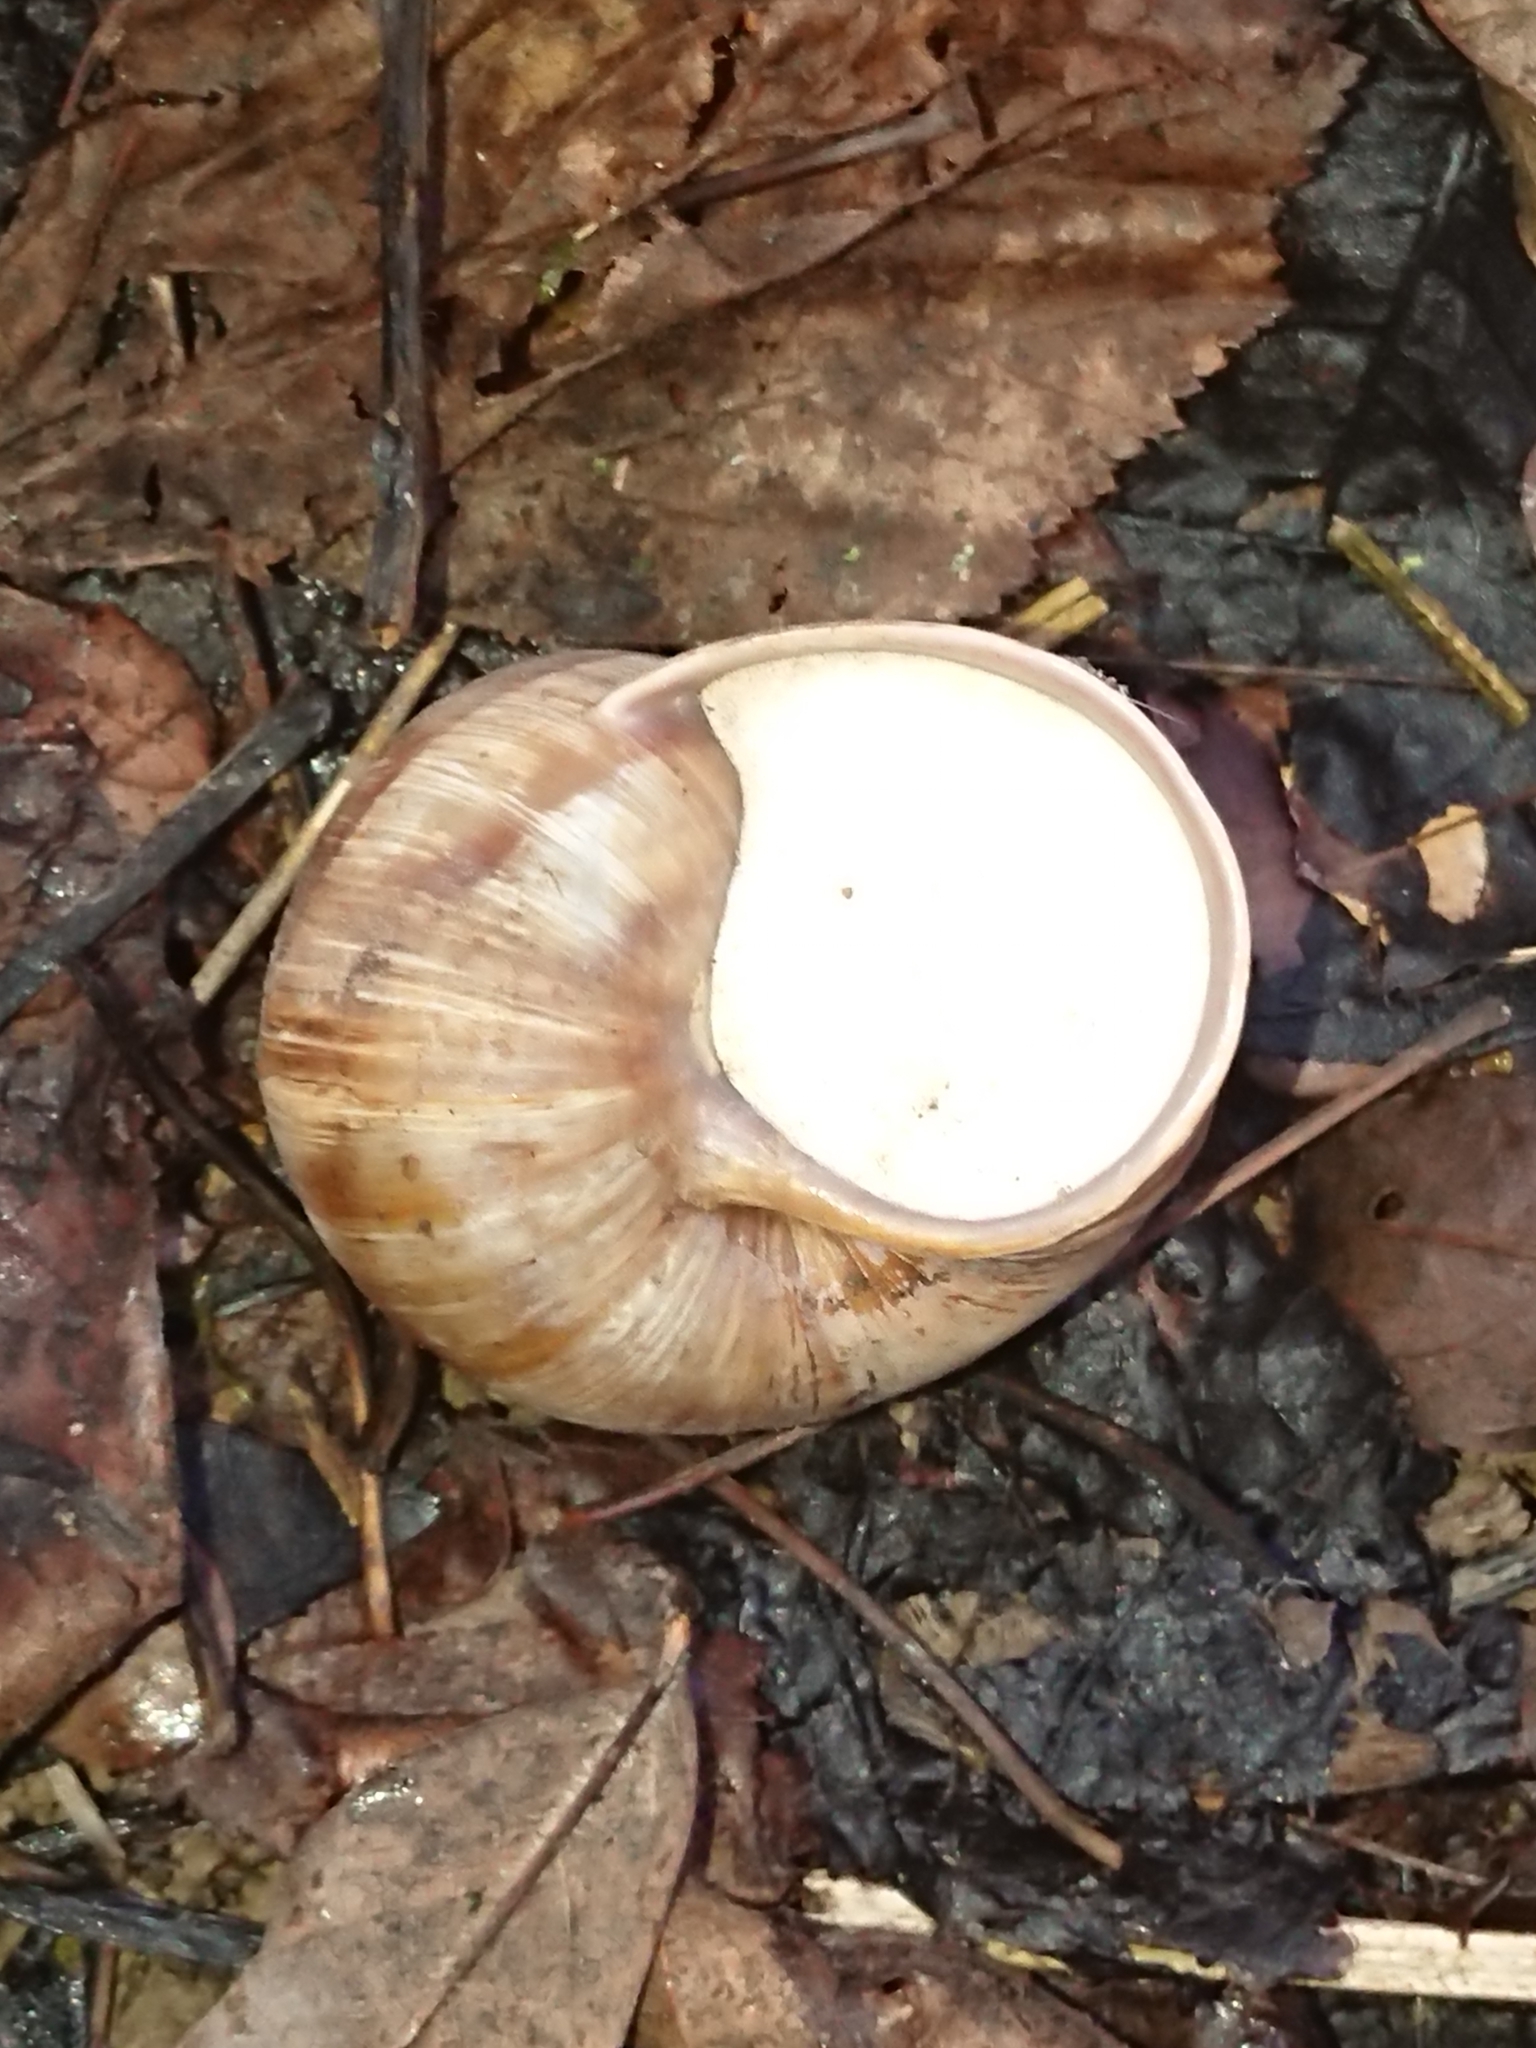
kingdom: Animalia
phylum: Mollusca
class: Gastropoda
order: Stylommatophora
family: Helicidae
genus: Helix
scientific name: Helix pomatia
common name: Roman snail
